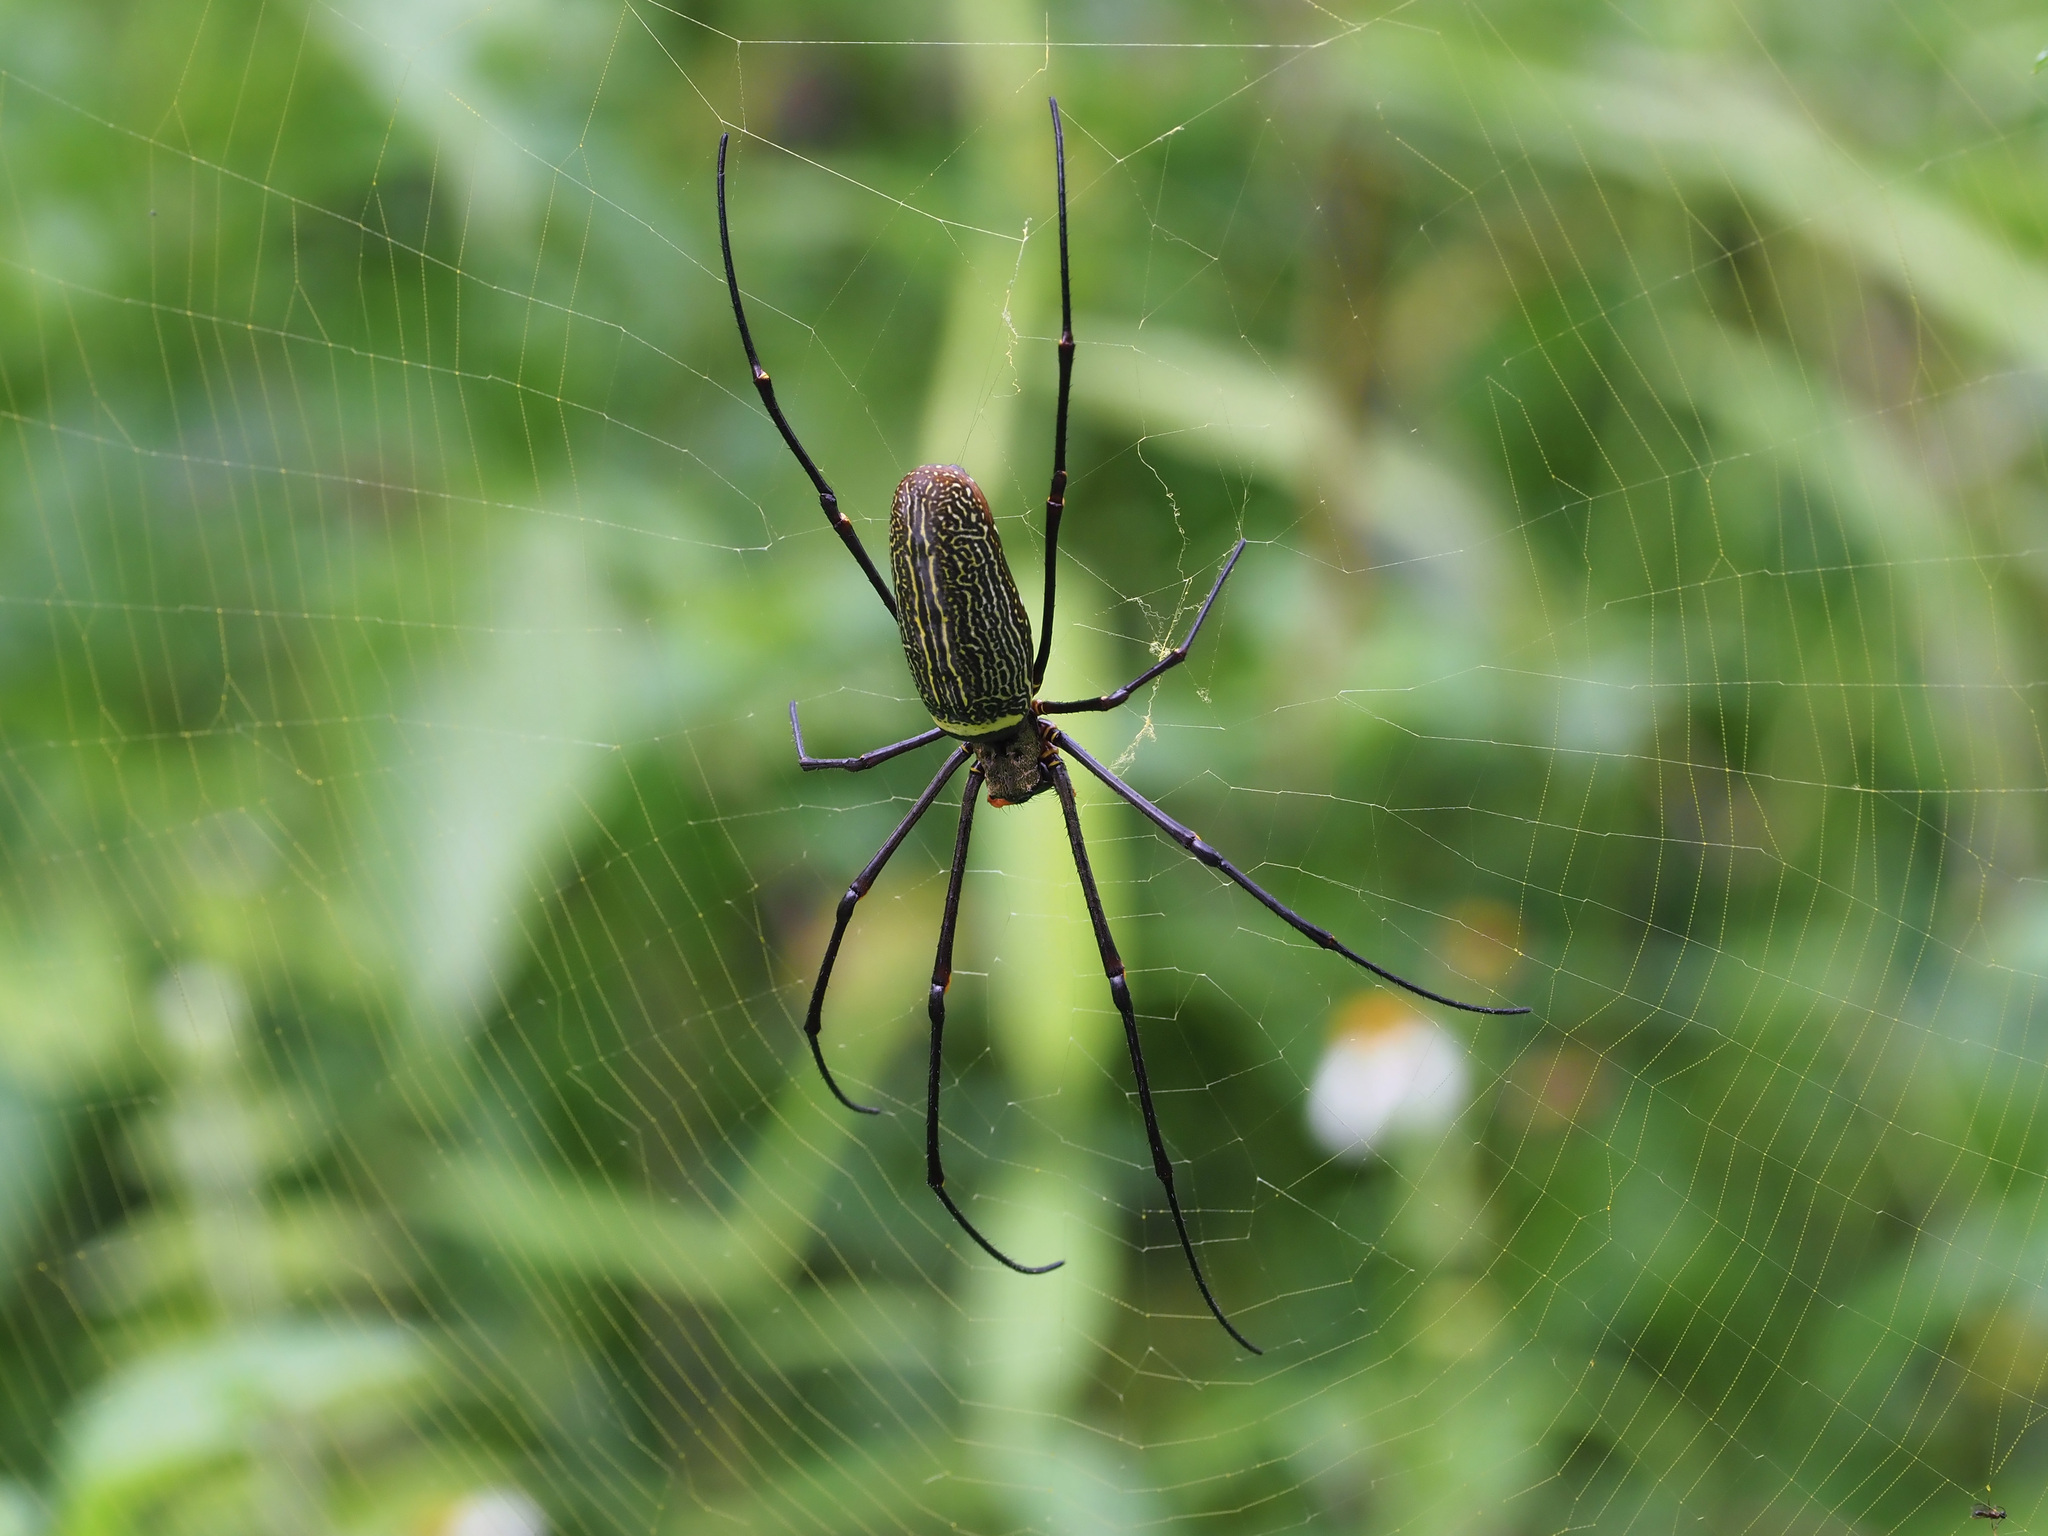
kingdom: Animalia
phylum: Arthropoda
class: Arachnida
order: Araneae
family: Araneidae
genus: Nephila
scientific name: Nephila pilipes
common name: Giant golden orb weaver
